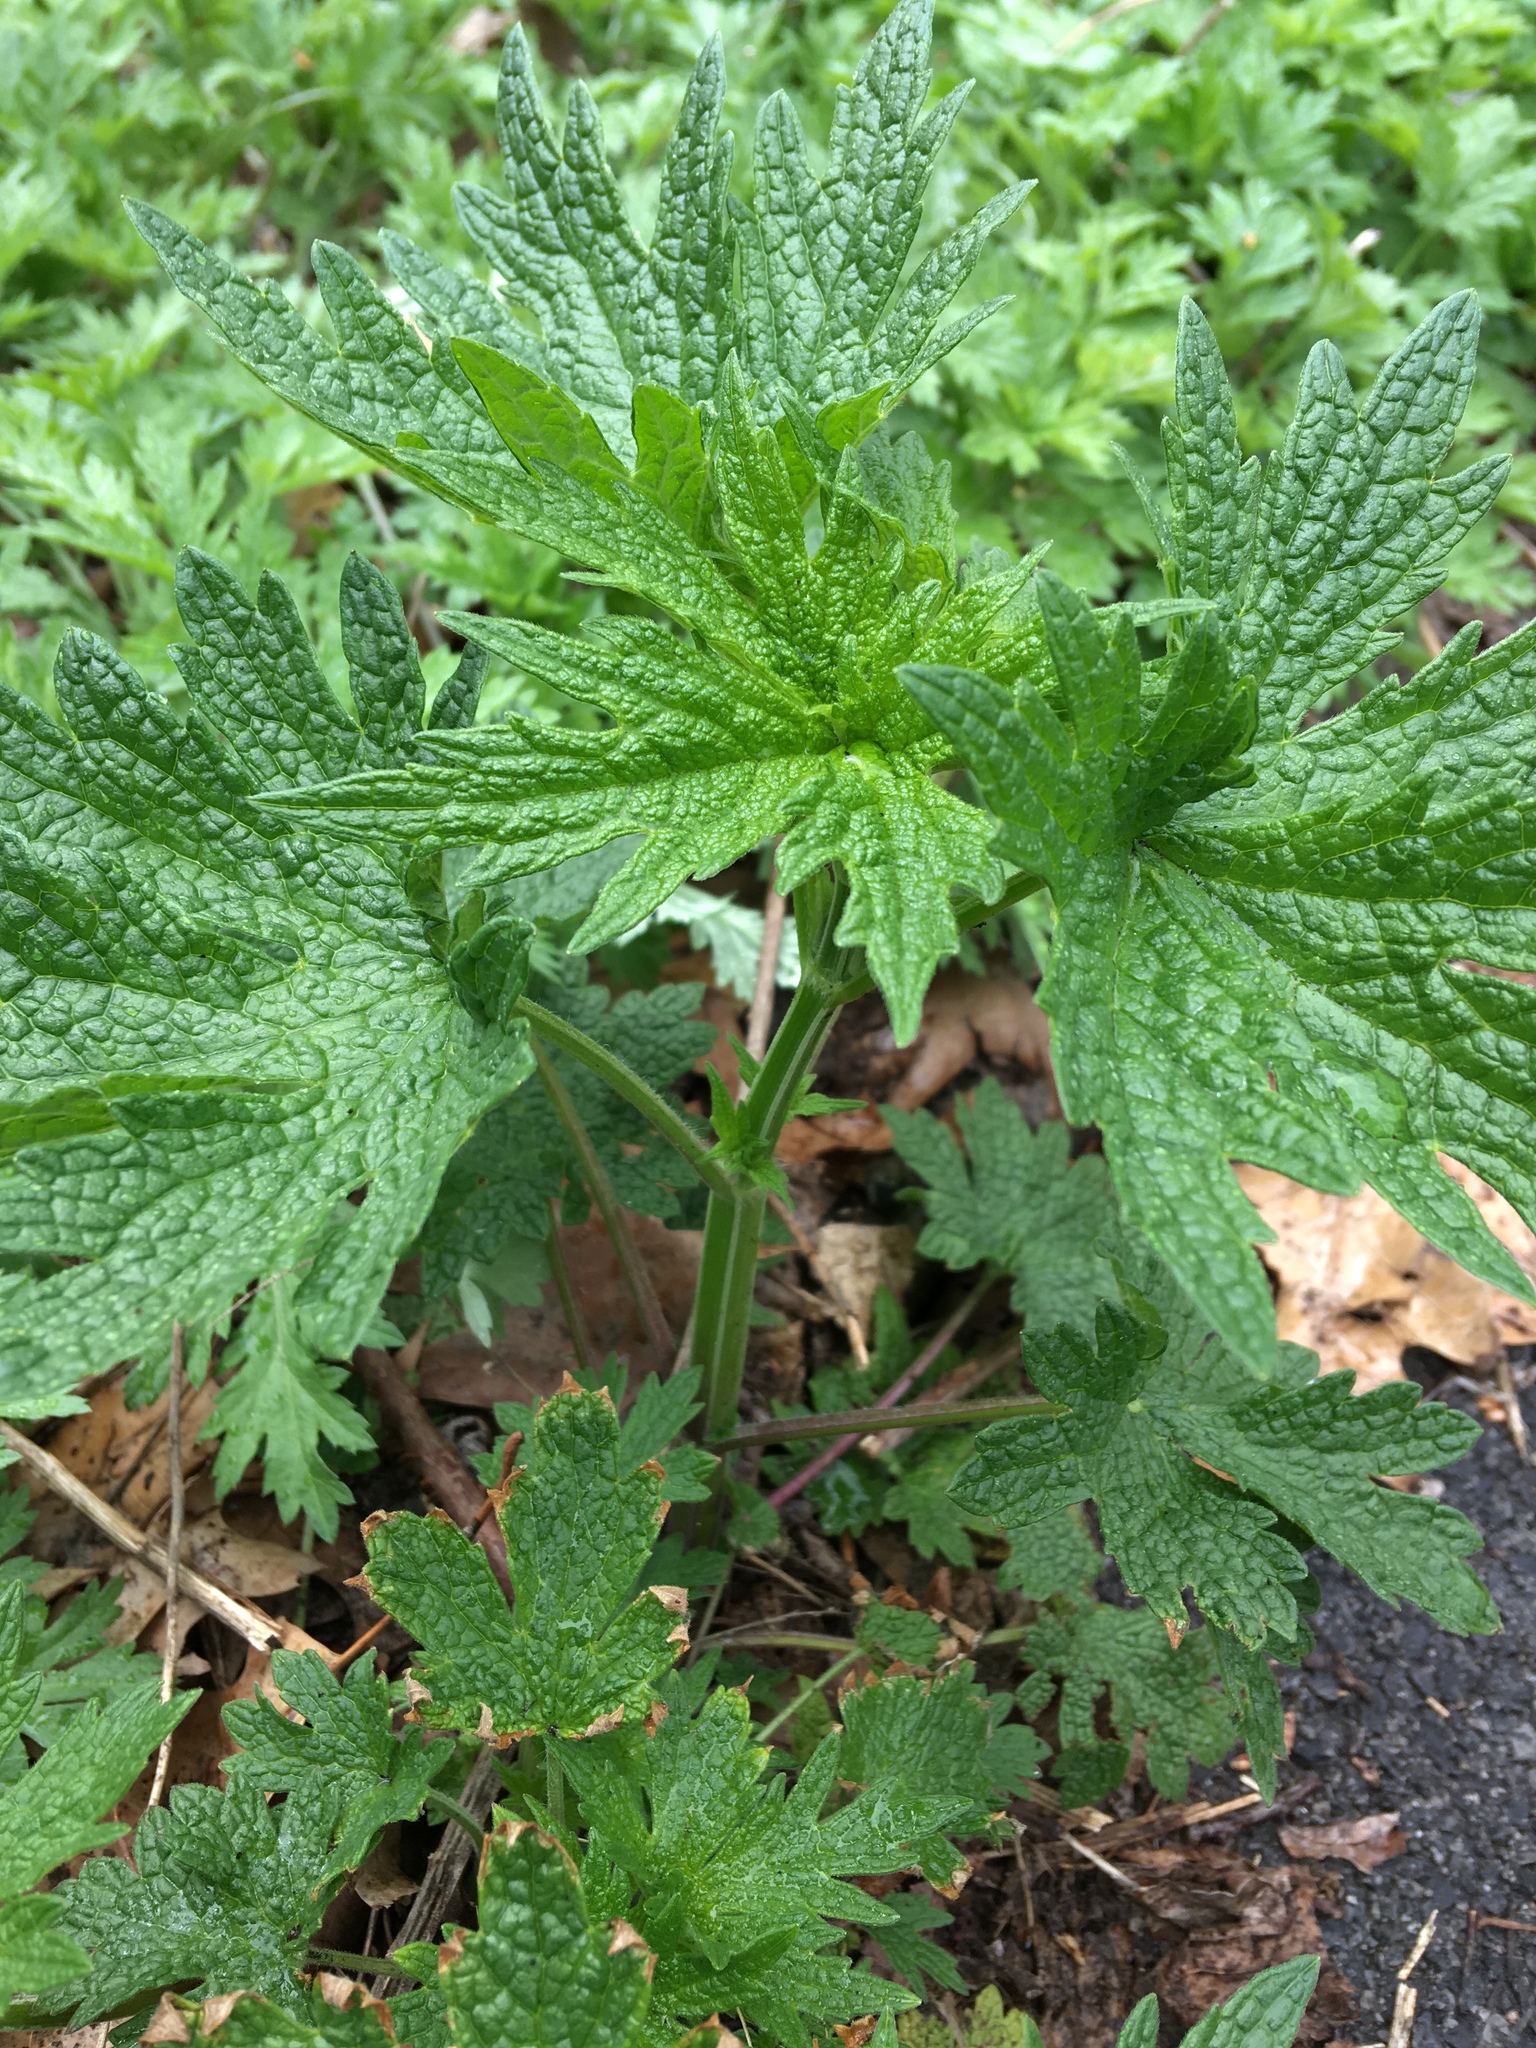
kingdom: Plantae
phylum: Tracheophyta
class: Magnoliopsida
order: Lamiales
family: Lamiaceae
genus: Leonurus
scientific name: Leonurus cardiaca
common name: Motherwort
